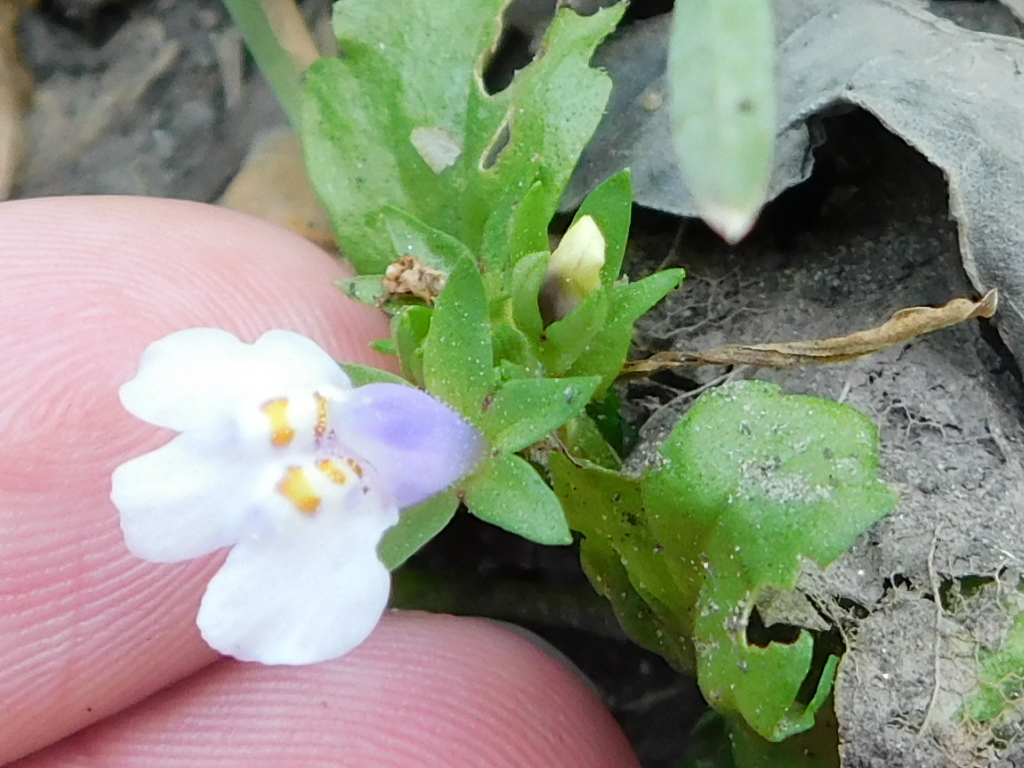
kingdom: Plantae
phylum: Tracheophyta
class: Magnoliopsida
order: Lamiales
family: Mazaceae
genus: Mazus
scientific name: Mazus pumilus
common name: Japanese mazus
